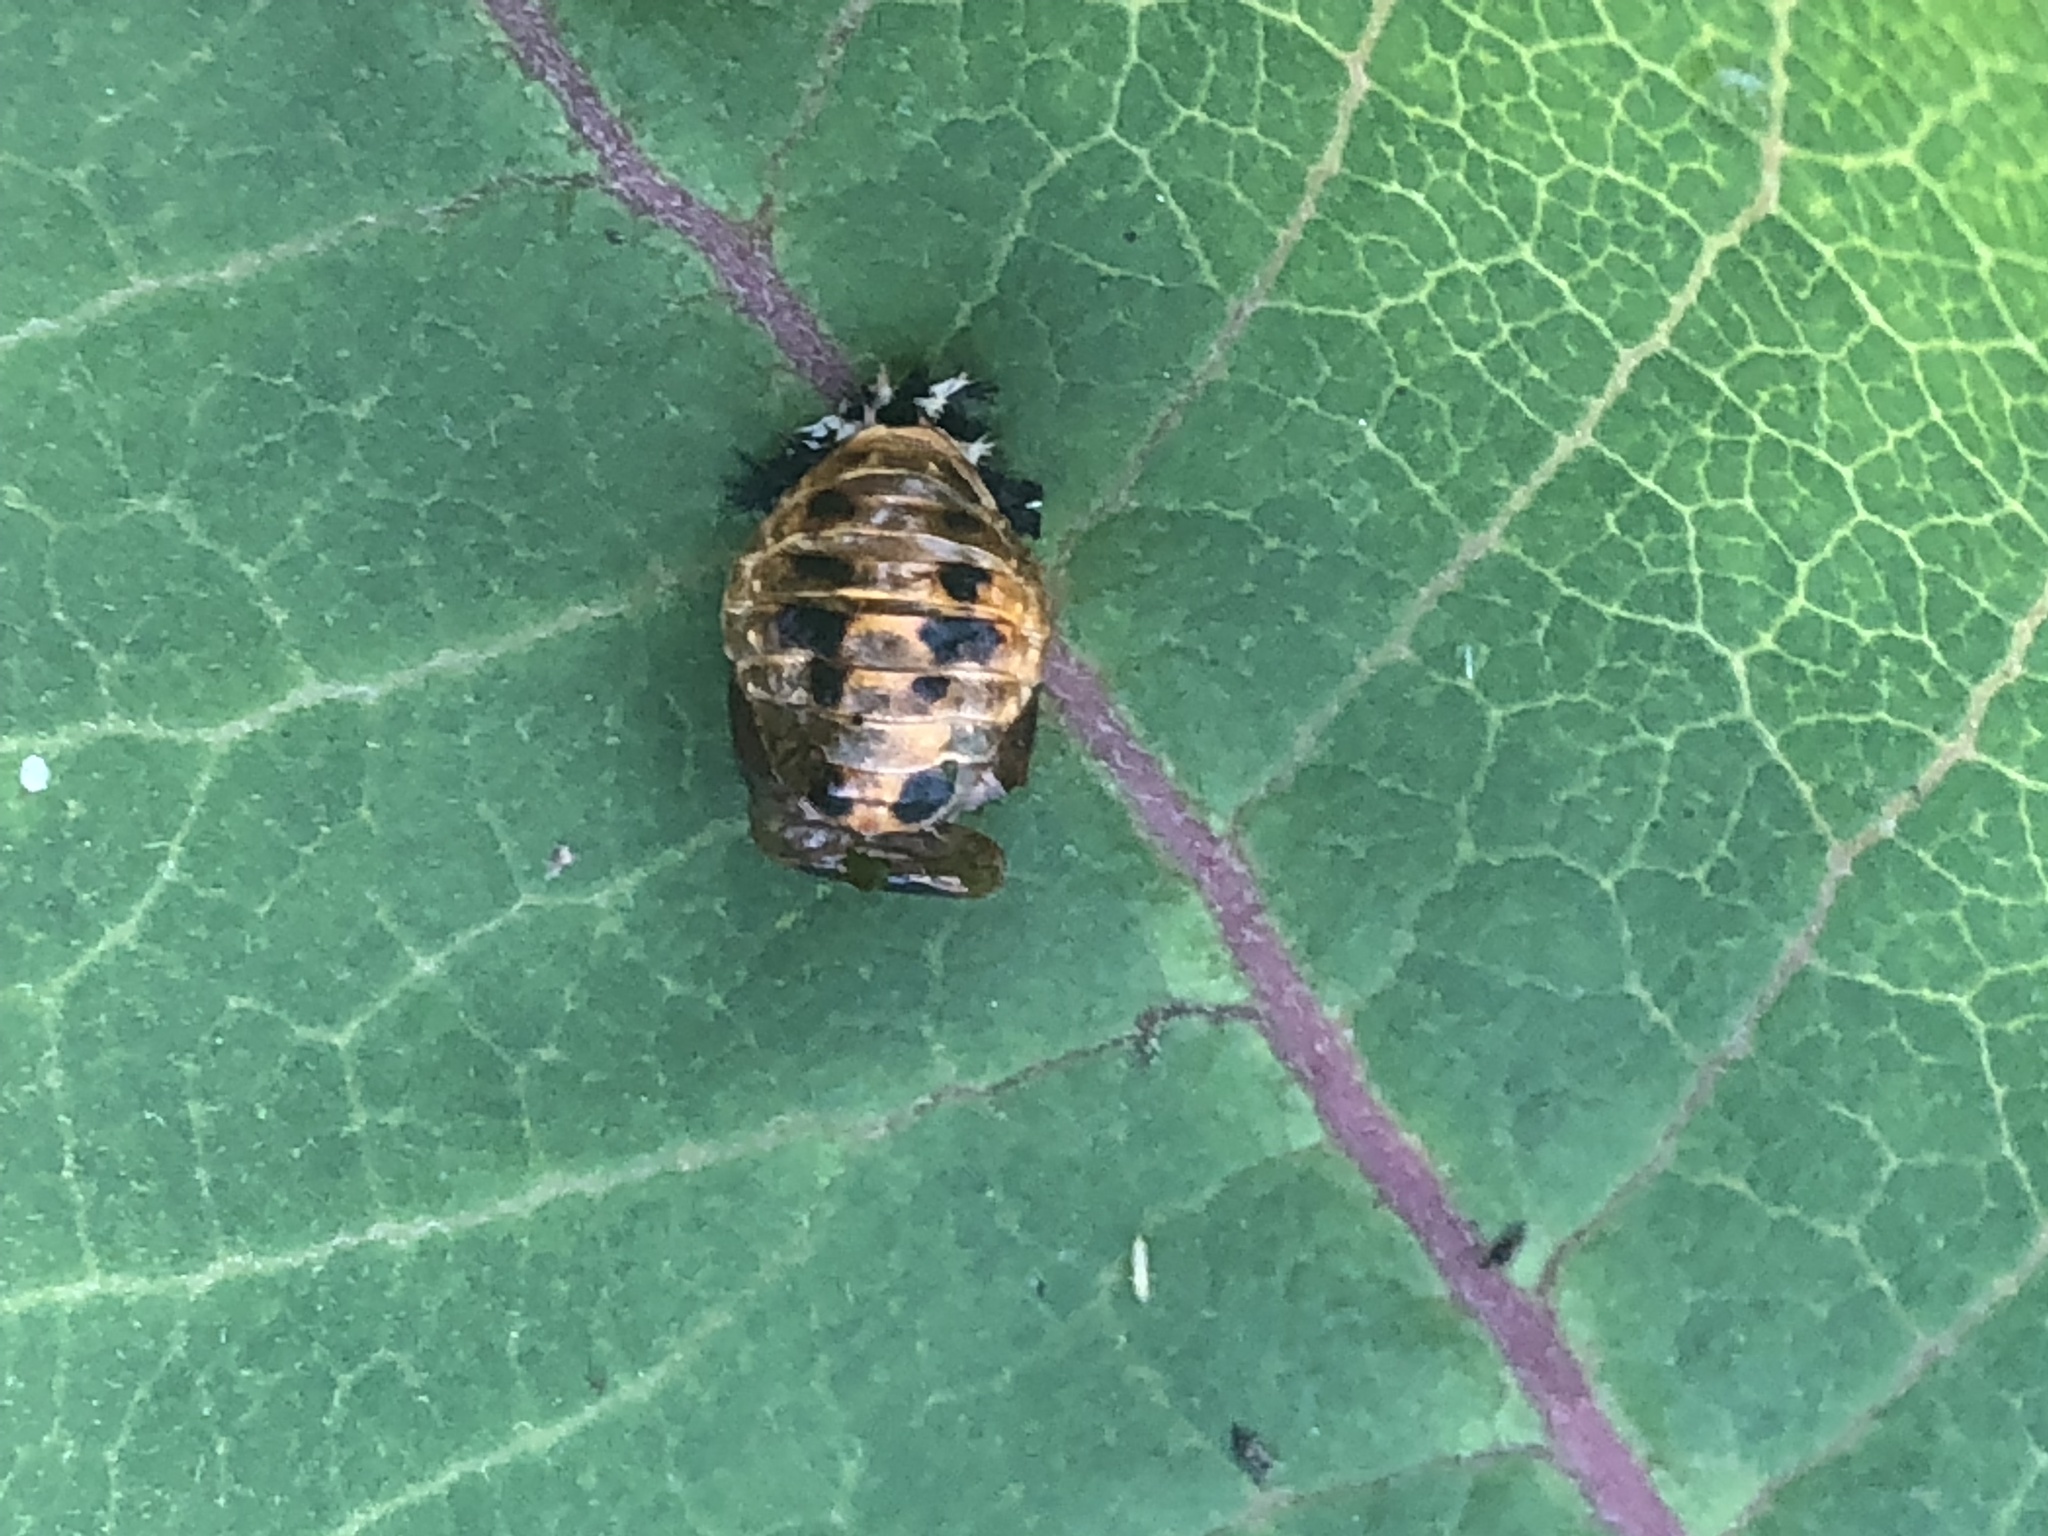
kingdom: Animalia
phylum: Arthropoda
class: Insecta
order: Coleoptera
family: Coccinellidae
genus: Harmonia
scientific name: Harmonia axyridis
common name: Harlequin ladybird
